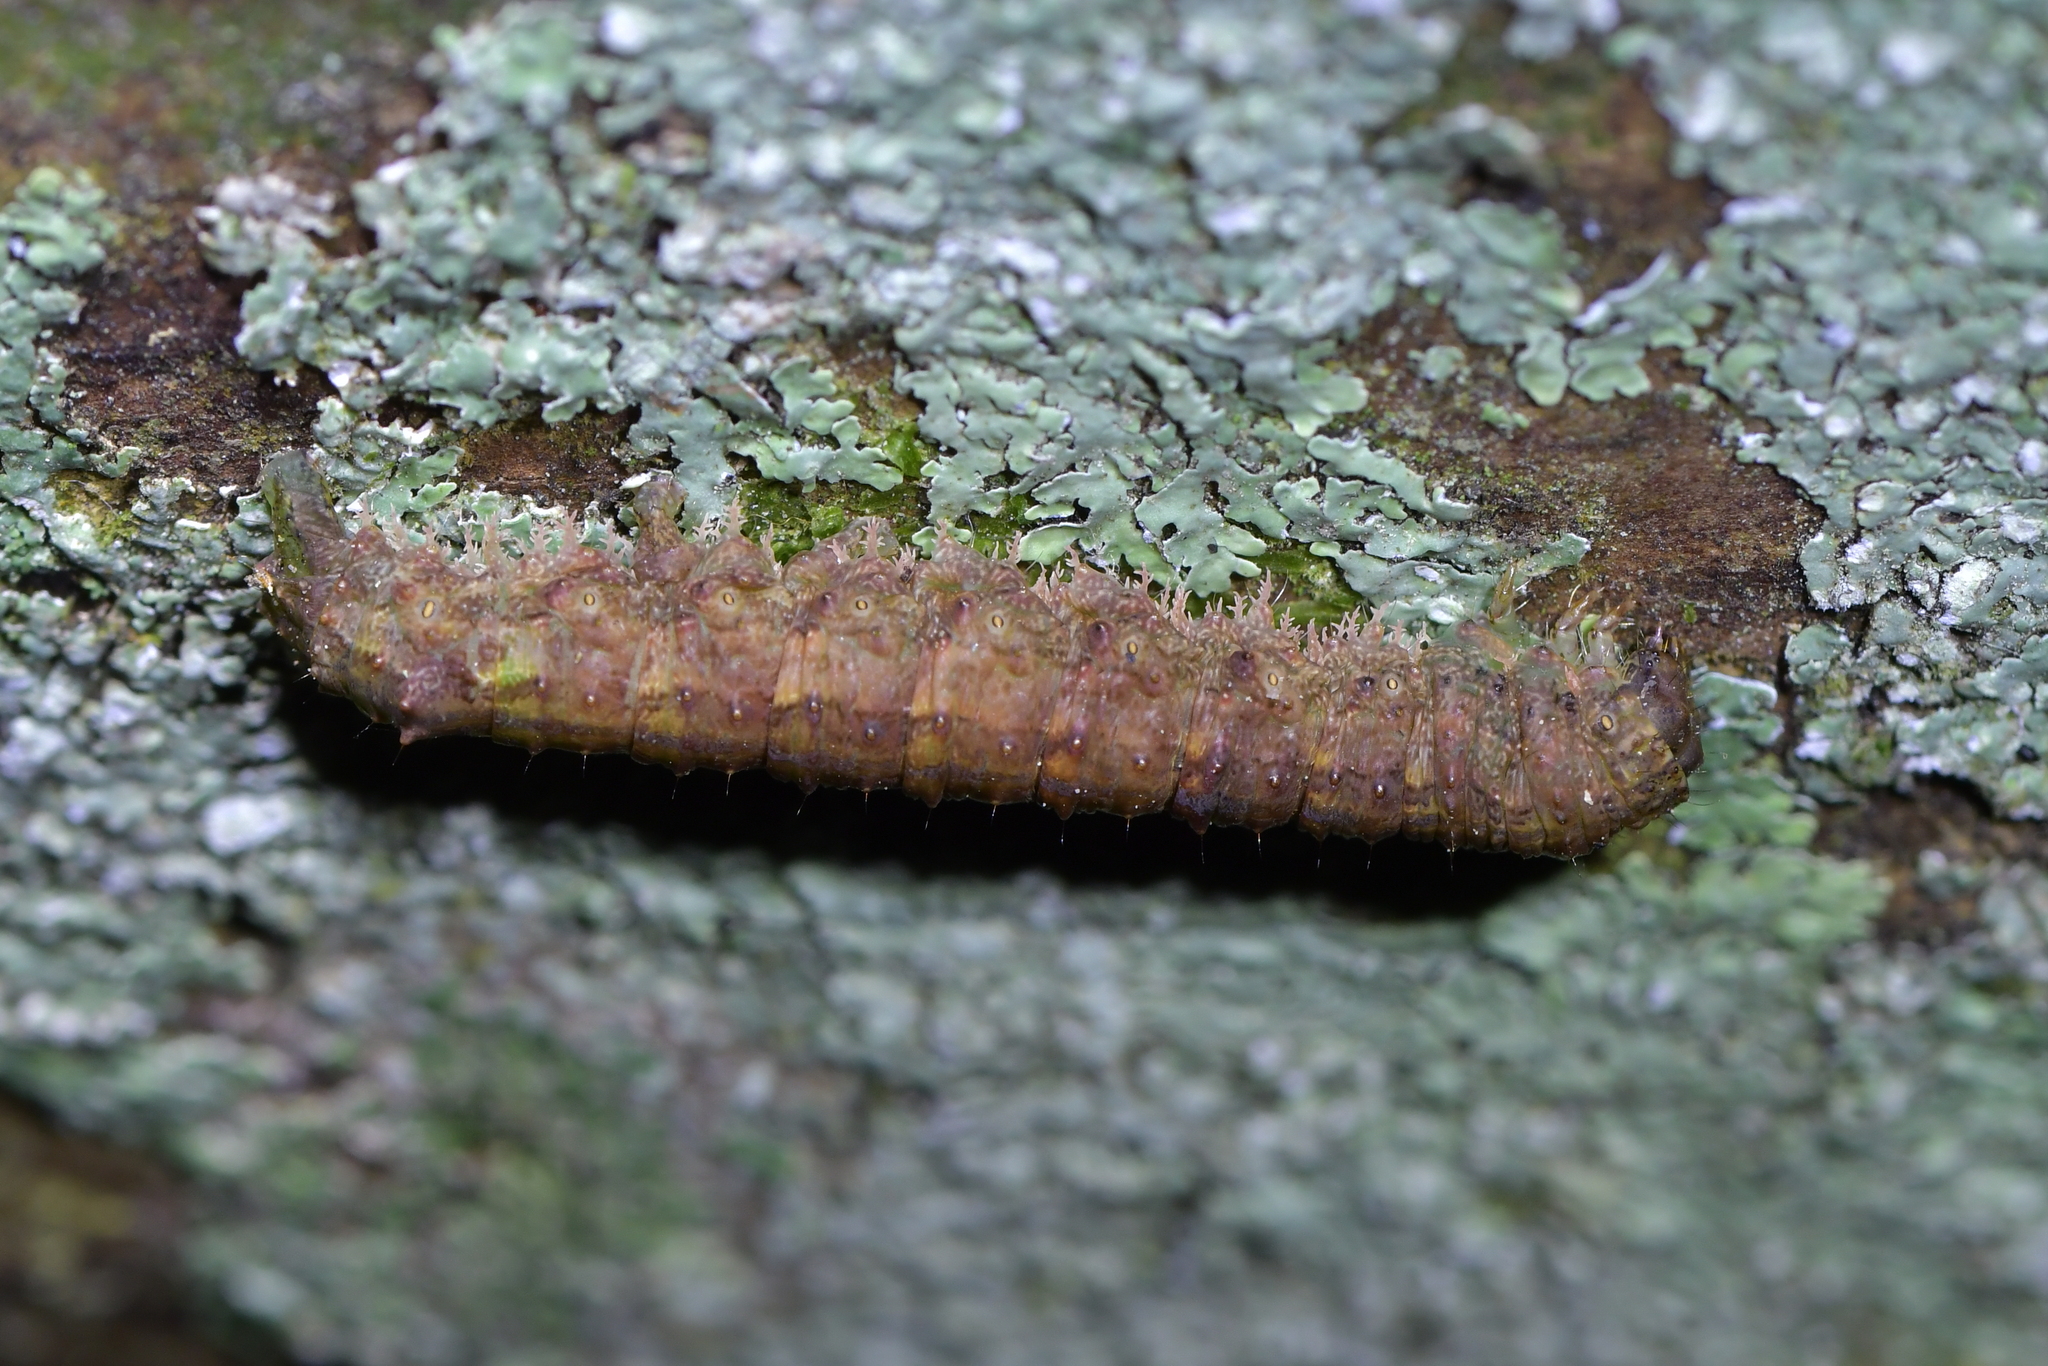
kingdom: Animalia
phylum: Arthropoda
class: Insecta
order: Lepidoptera
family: Geometridae
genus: Declana
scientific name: Declana floccosa
